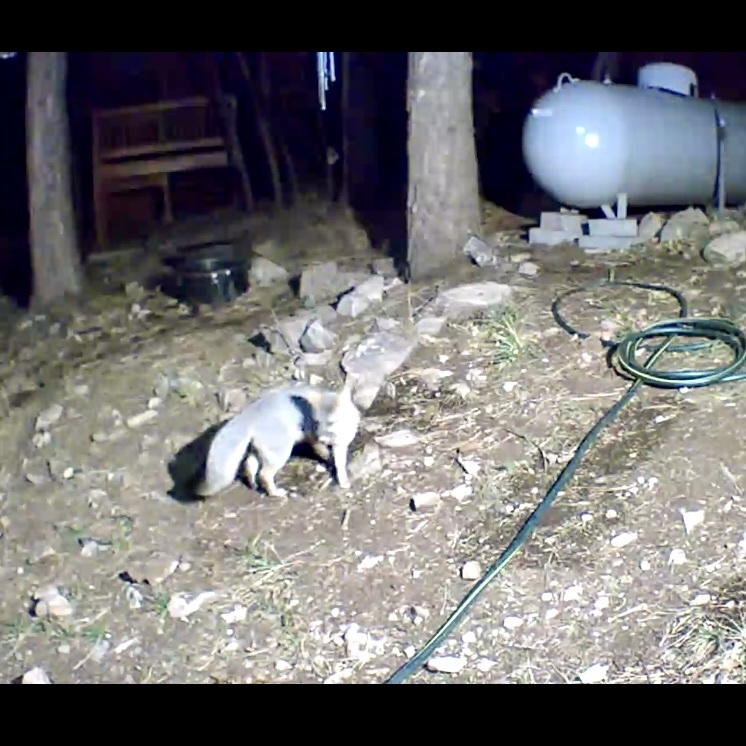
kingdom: Animalia
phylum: Chordata
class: Mammalia
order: Carnivora
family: Canidae
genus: Urocyon
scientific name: Urocyon cinereoargenteus
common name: Gray fox
